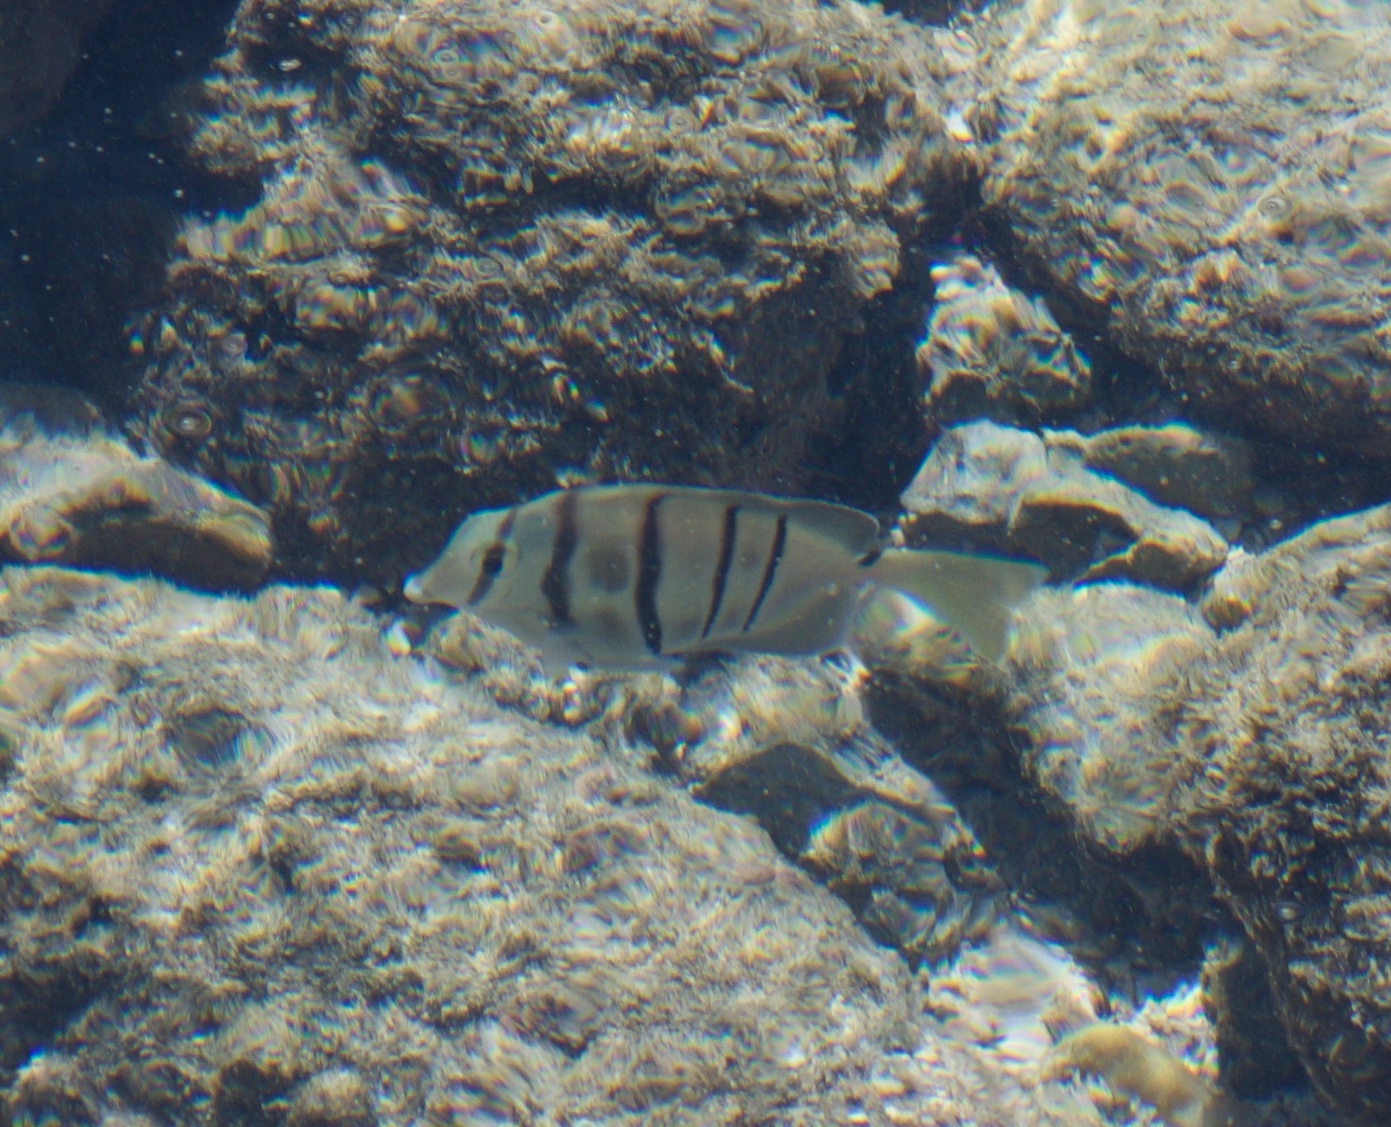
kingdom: Animalia
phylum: Chordata
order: Perciformes
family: Acanthuridae
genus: Acanthurus
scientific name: Acanthurus triostegus
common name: Convict surgeonfish
